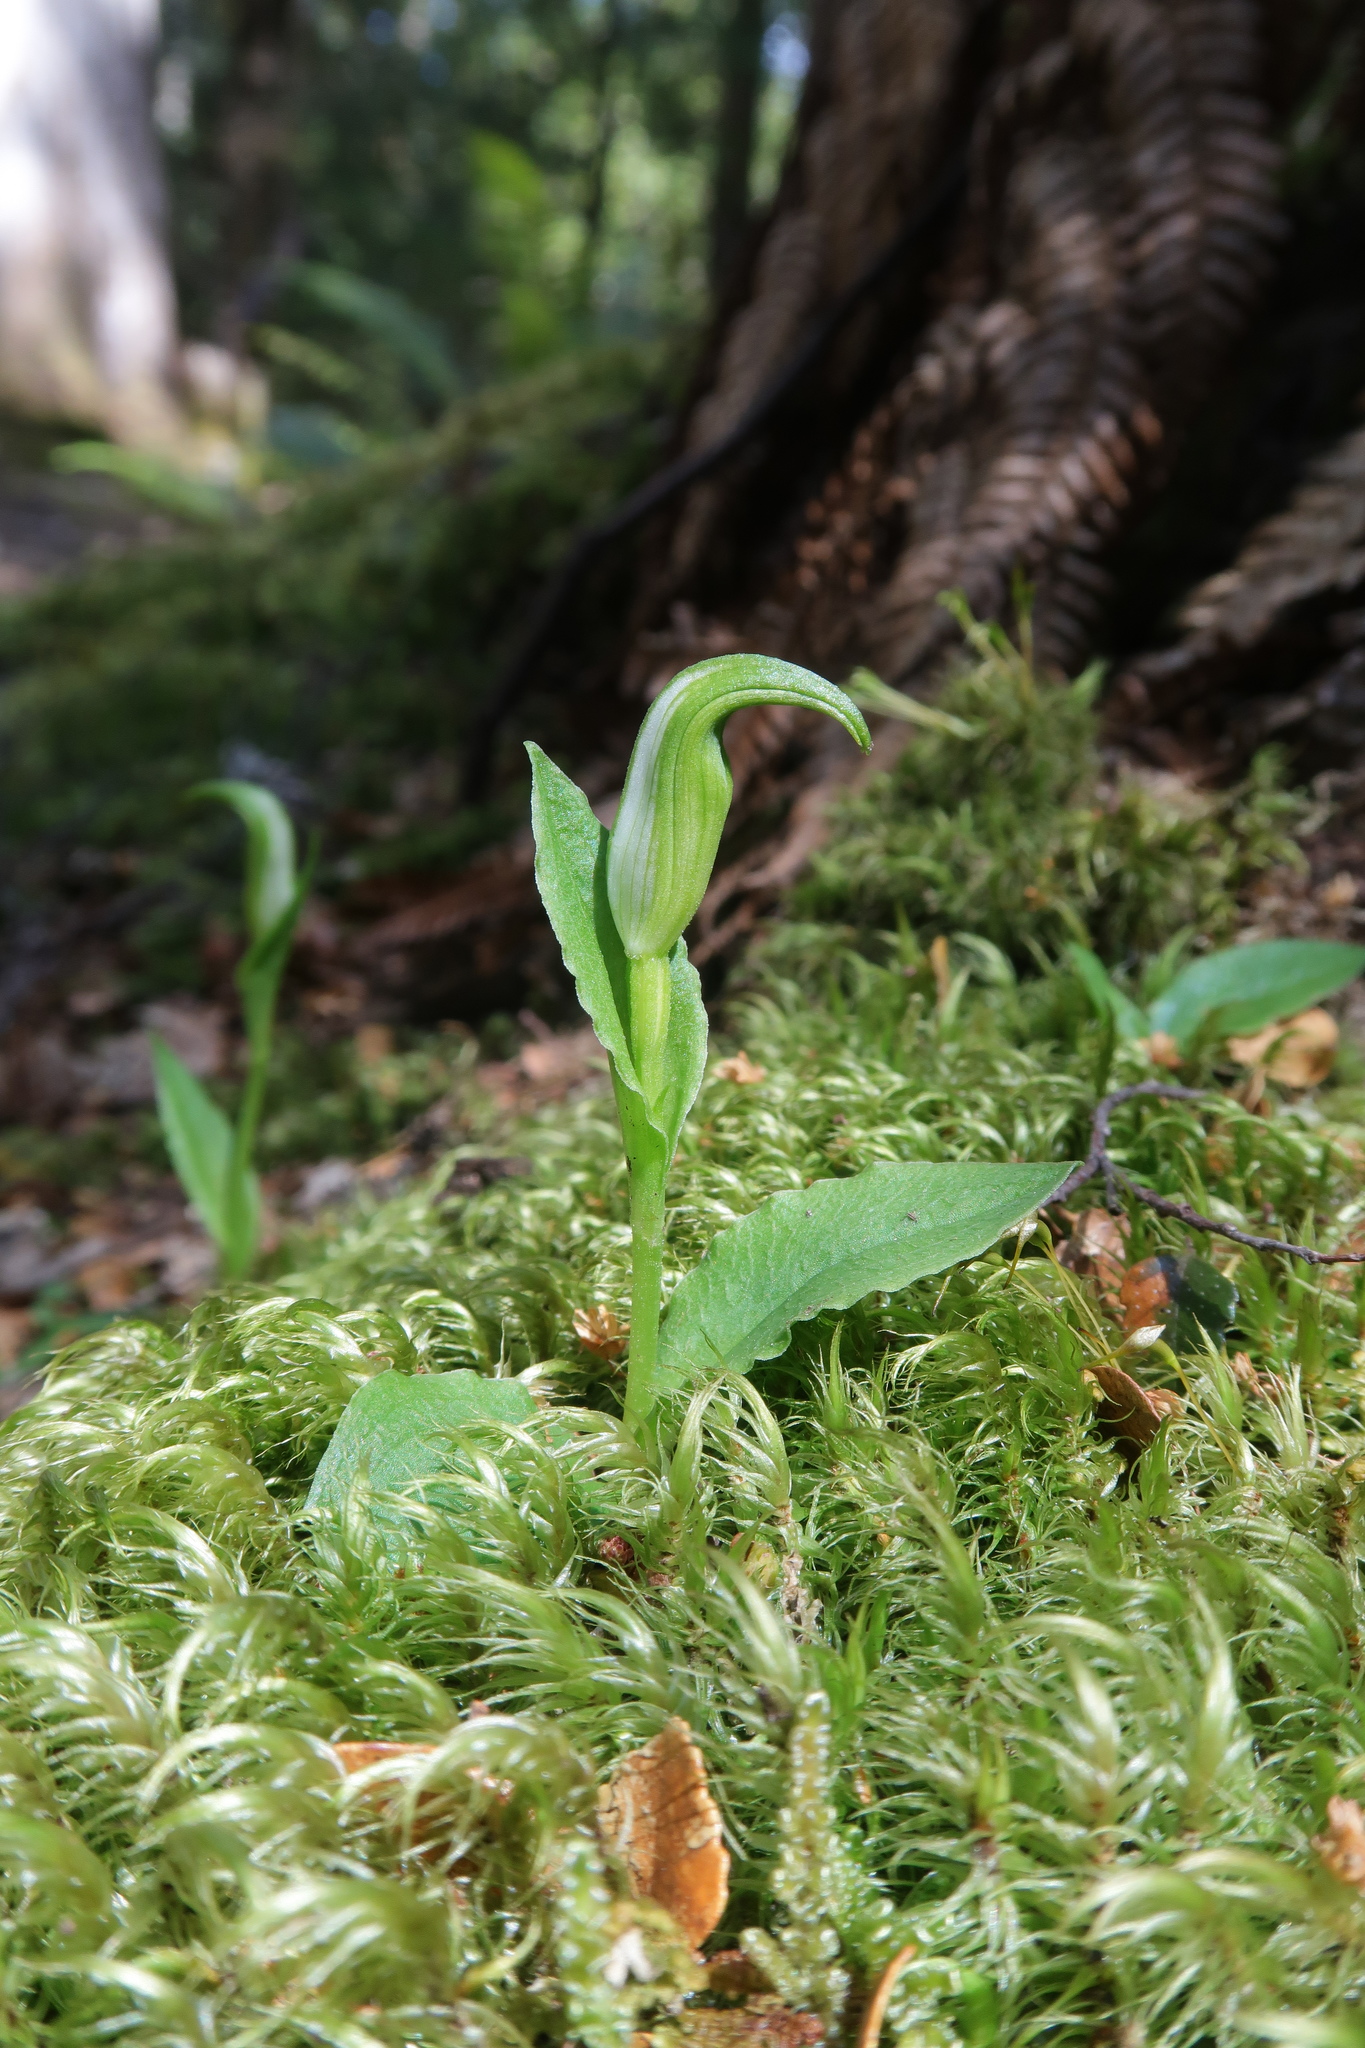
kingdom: Plantae
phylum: Tracheophyta
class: Liliopsida
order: Asparagales
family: Orchidaceae
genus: Pterostylis
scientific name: Pterostylis scabrida
